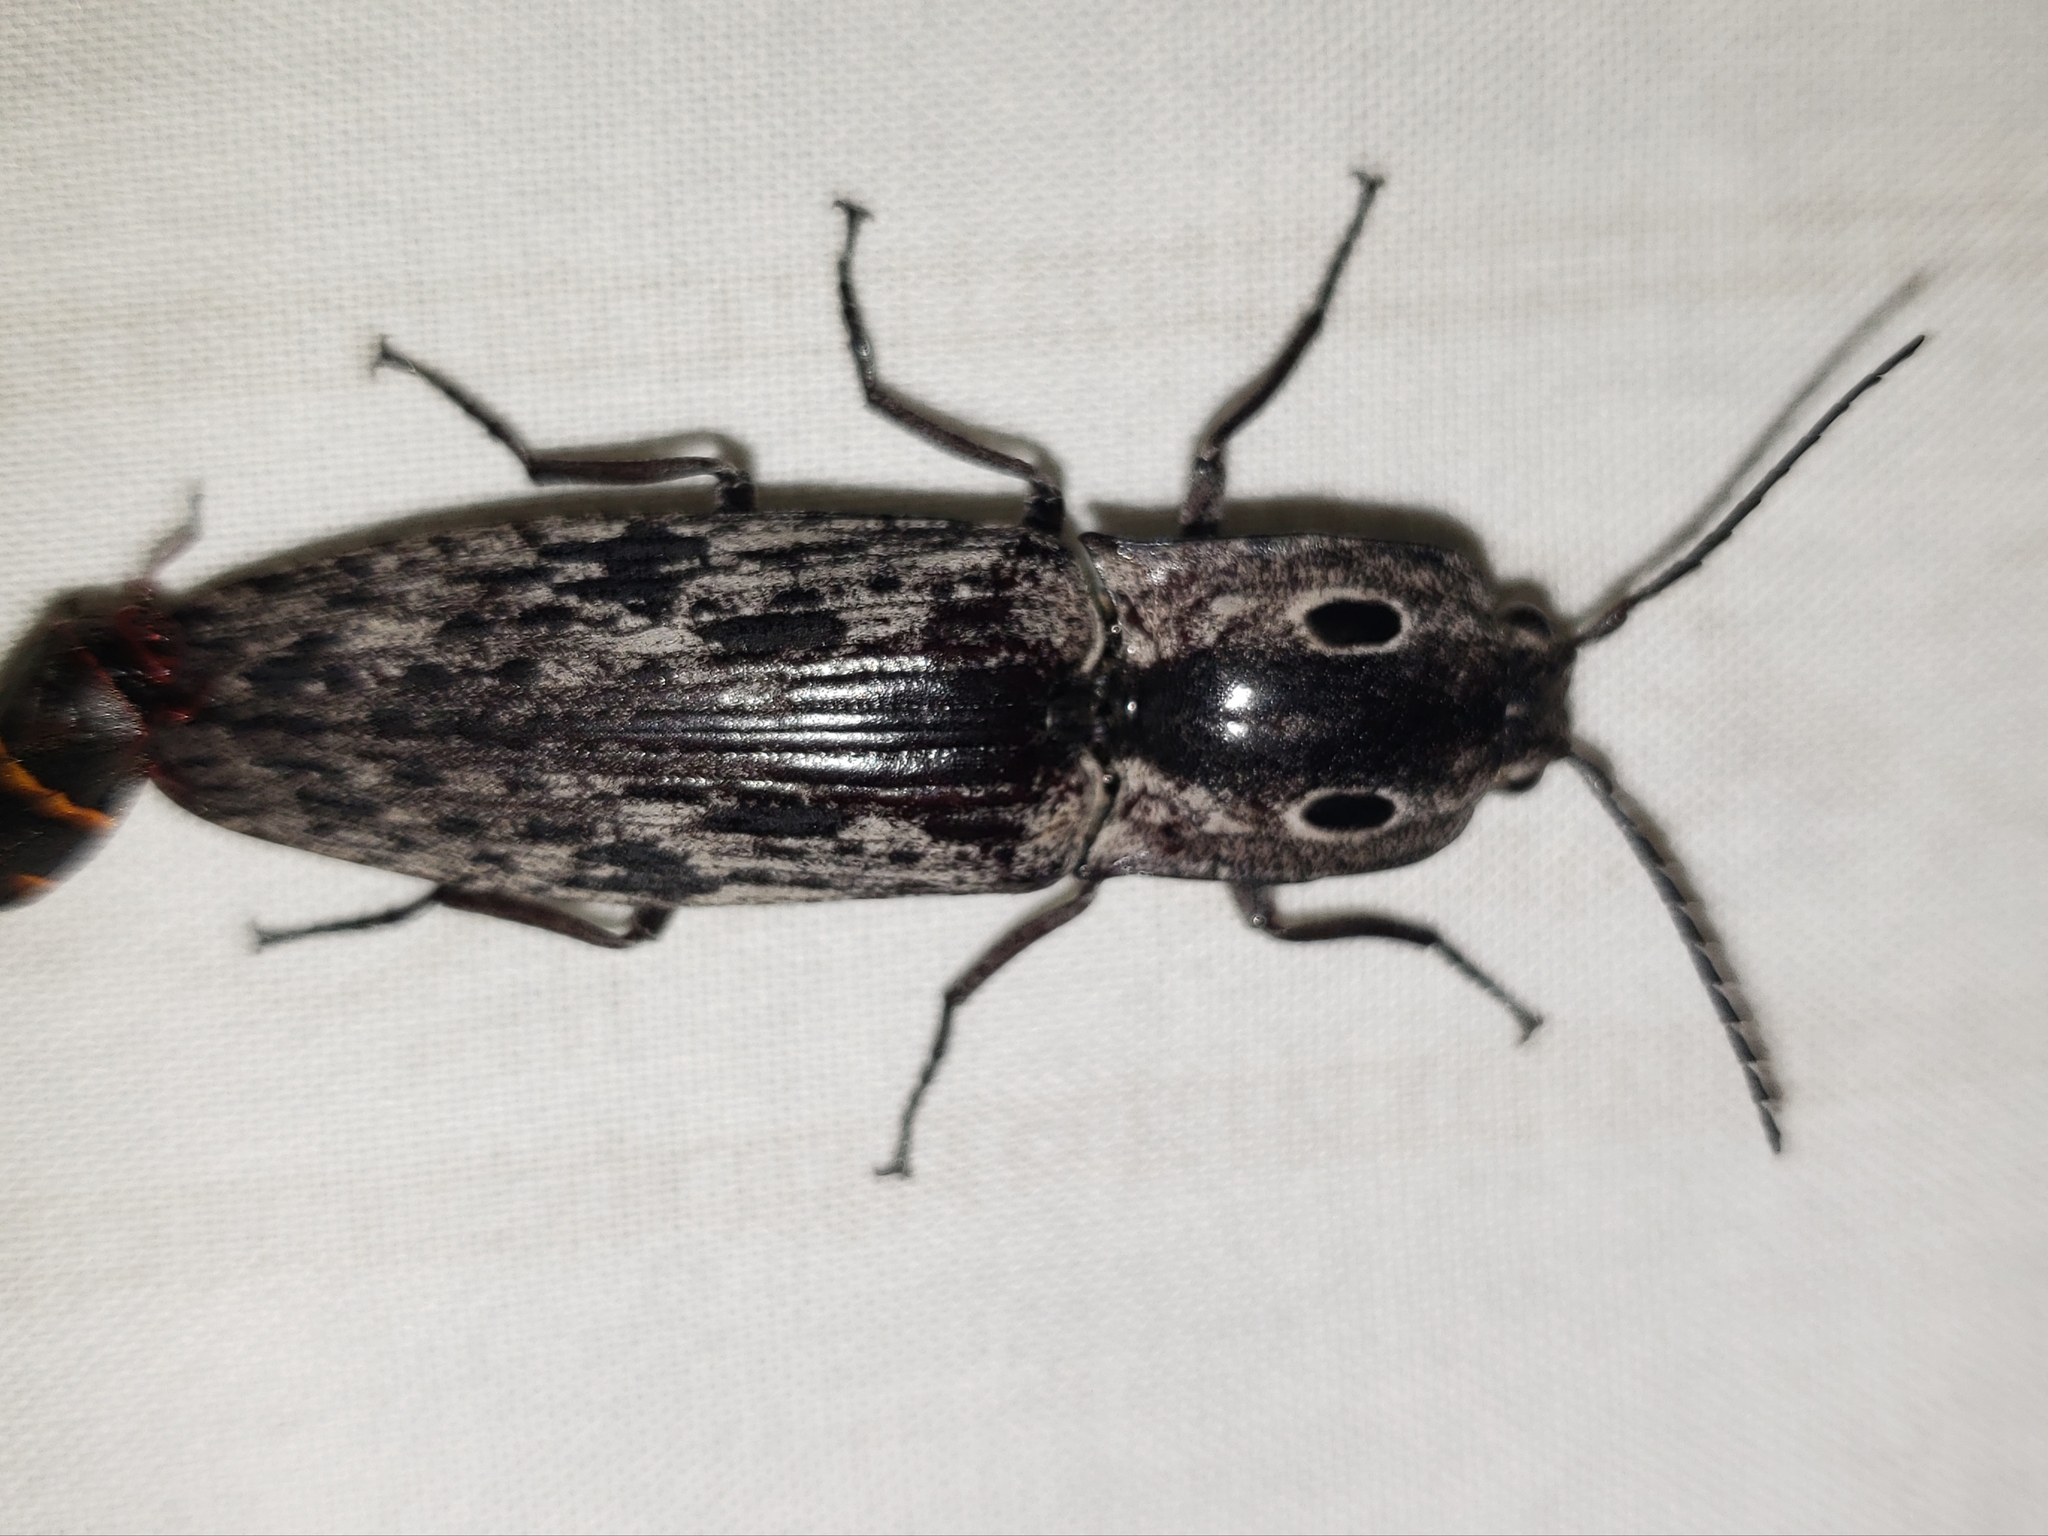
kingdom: Animalia
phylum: Arthropoda
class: Insecta
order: Coleoptera
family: Elateridae
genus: Alaus
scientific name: Alaus myops
